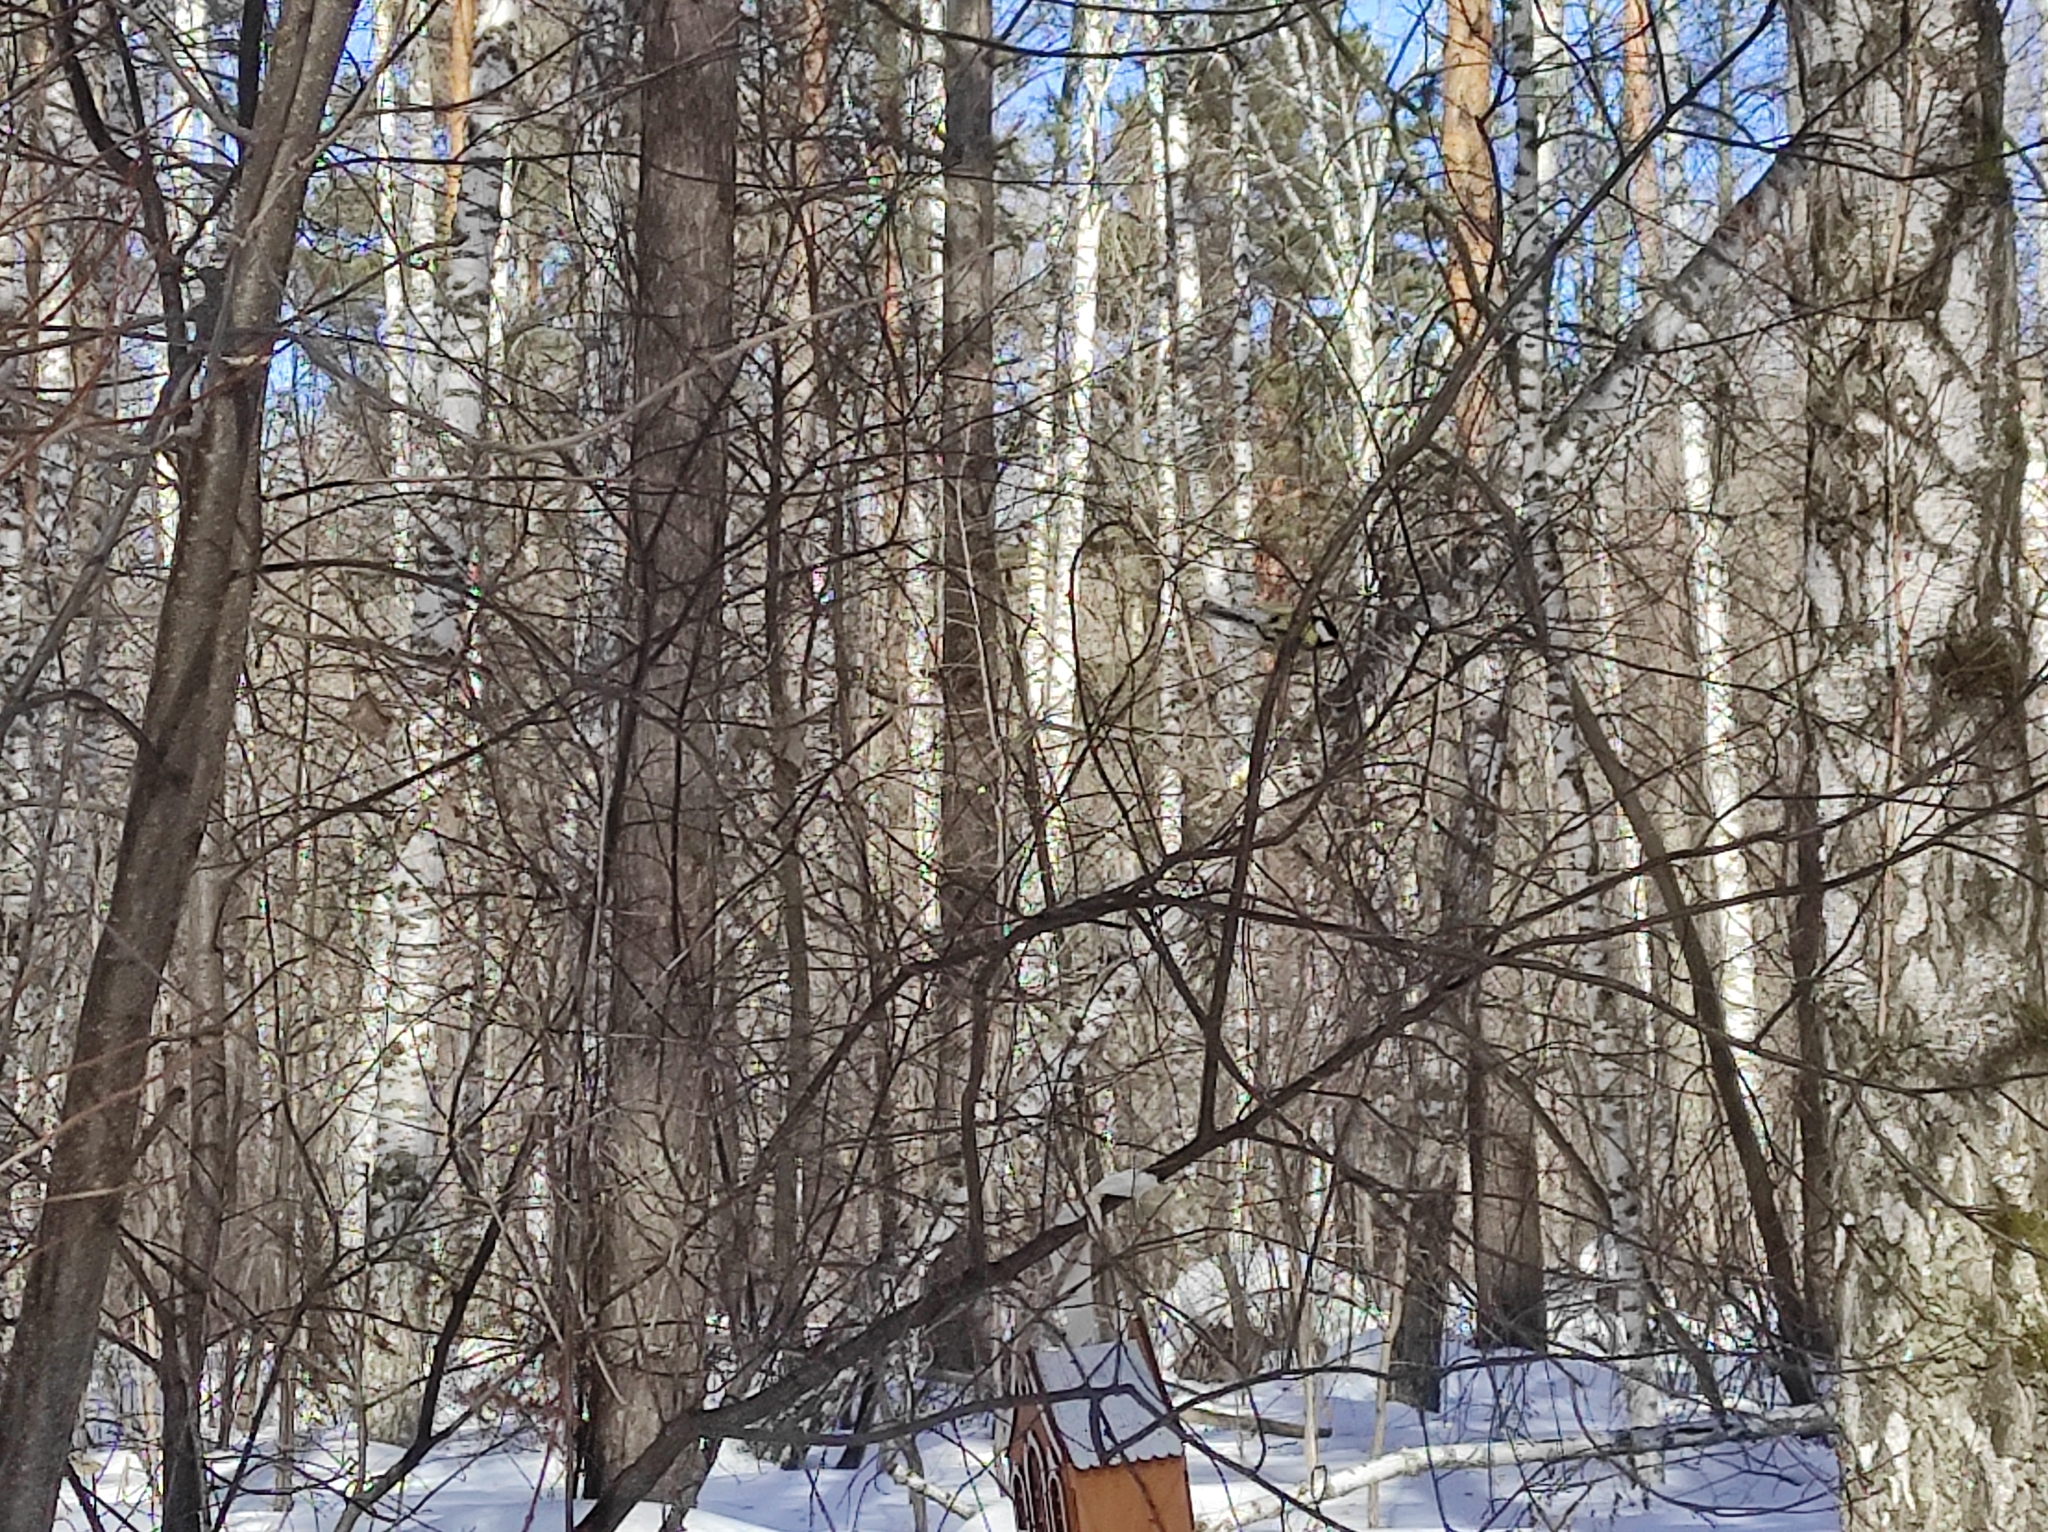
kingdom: Animalia
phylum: Chordata
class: Aves
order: Passeriformes
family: Paridae
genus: Parus
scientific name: Parus major
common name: Great tit
